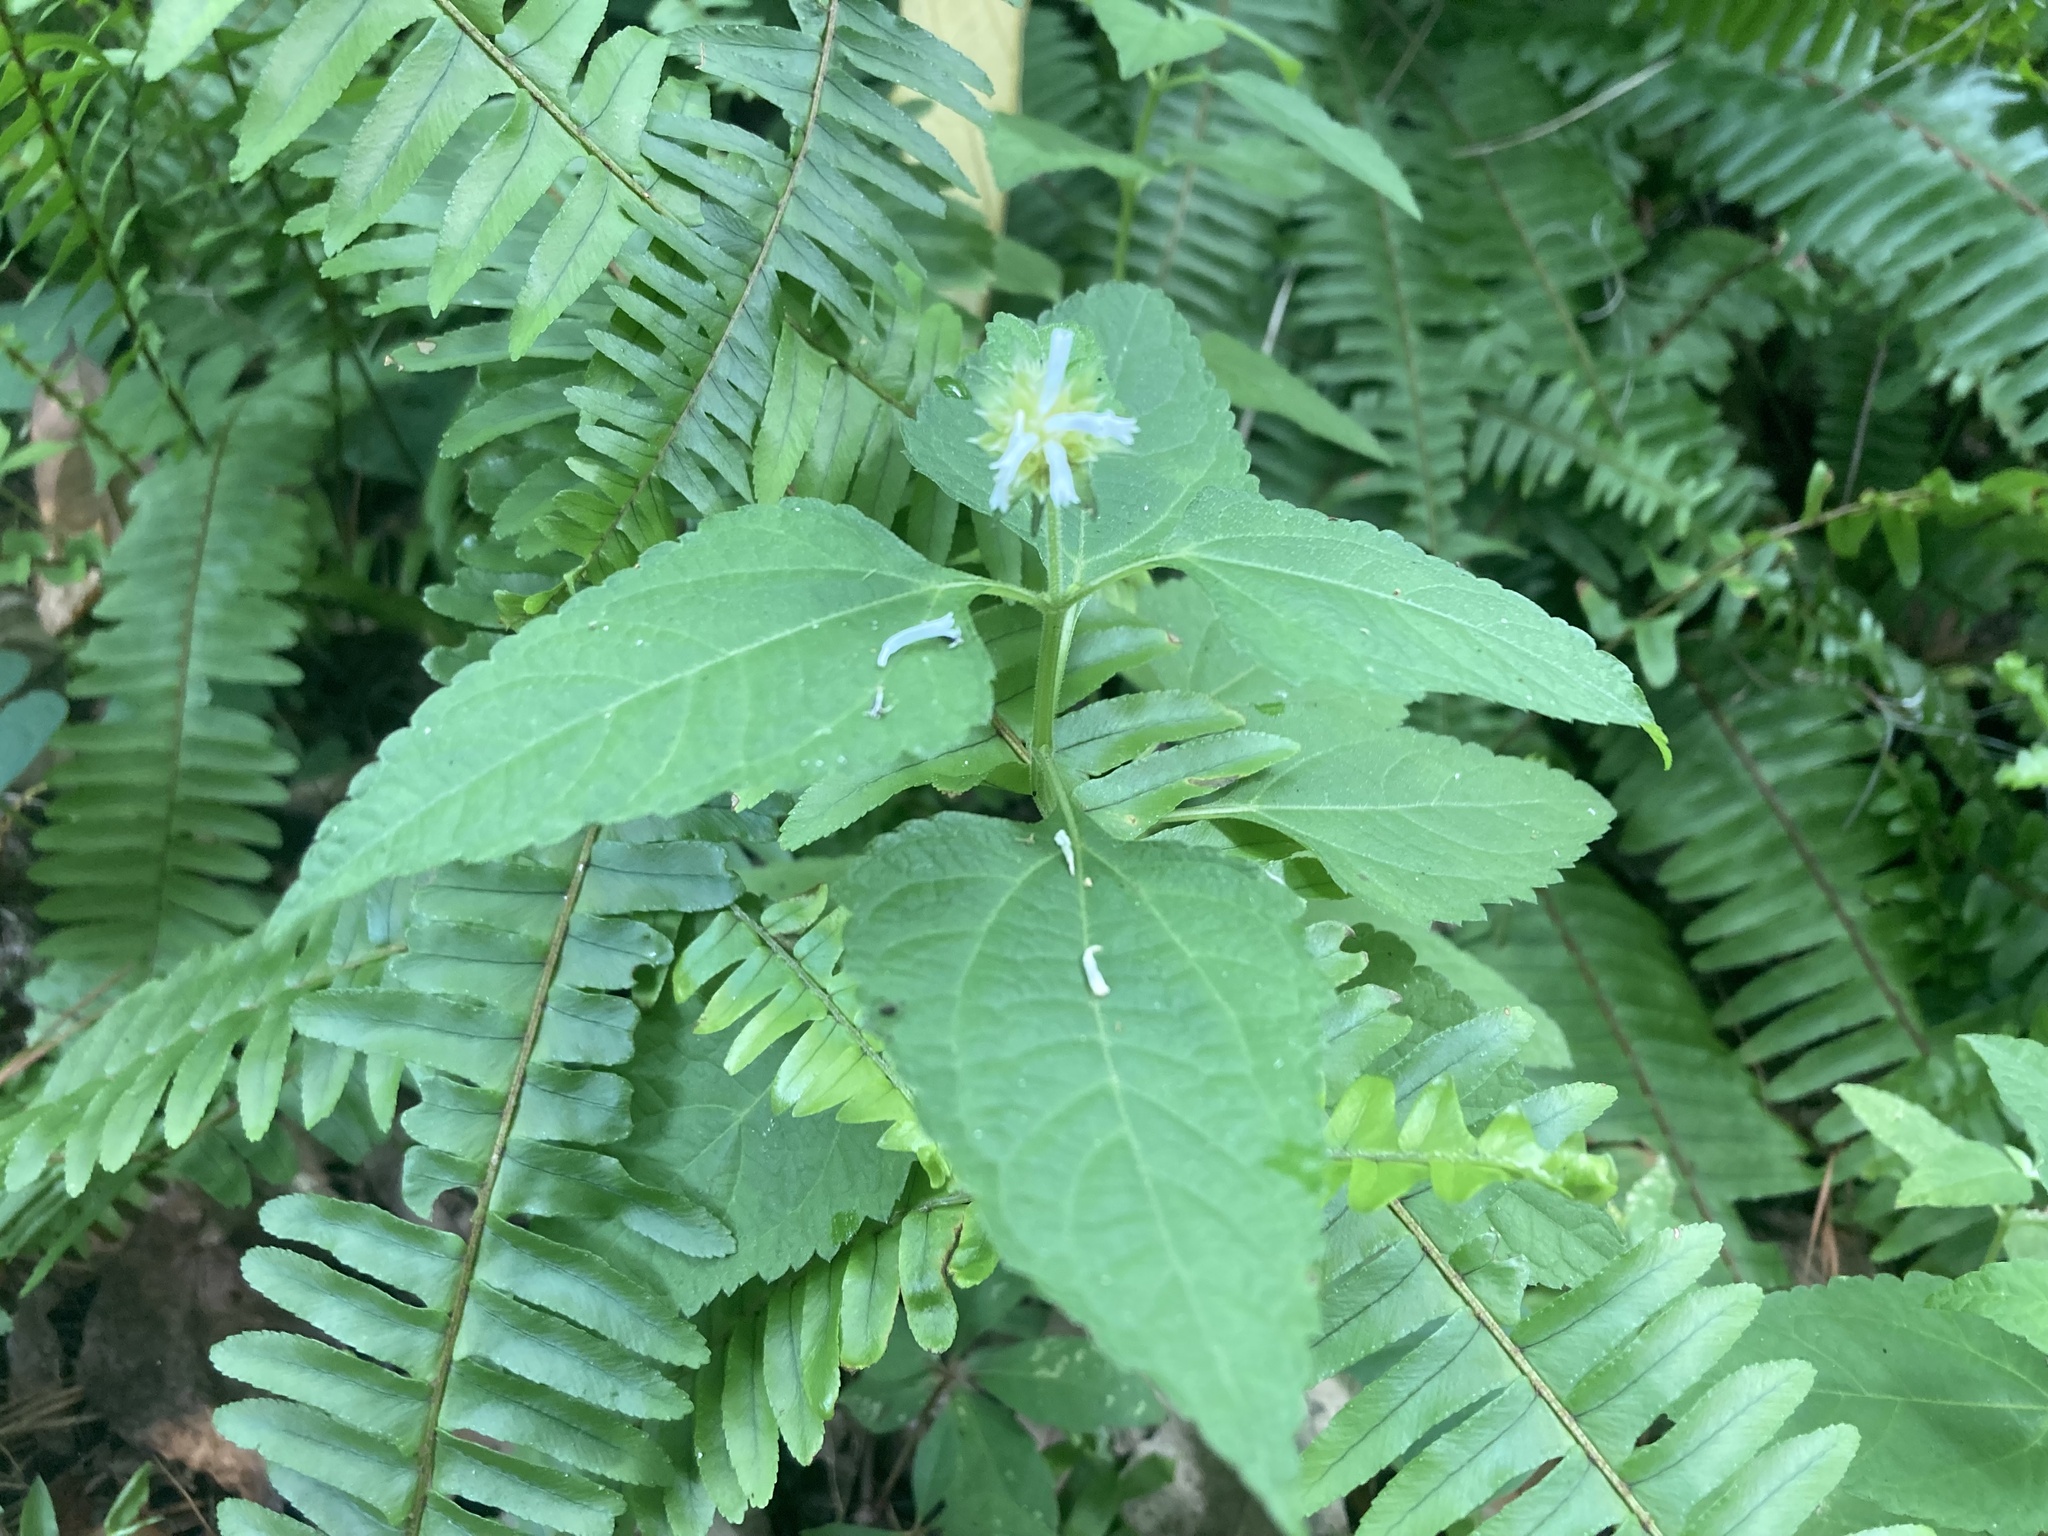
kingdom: Plantae
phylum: Tracheophyta
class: Magnoliopsida
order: Asterales
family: Asteraceae
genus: Melanthera
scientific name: Melanthera nivea
